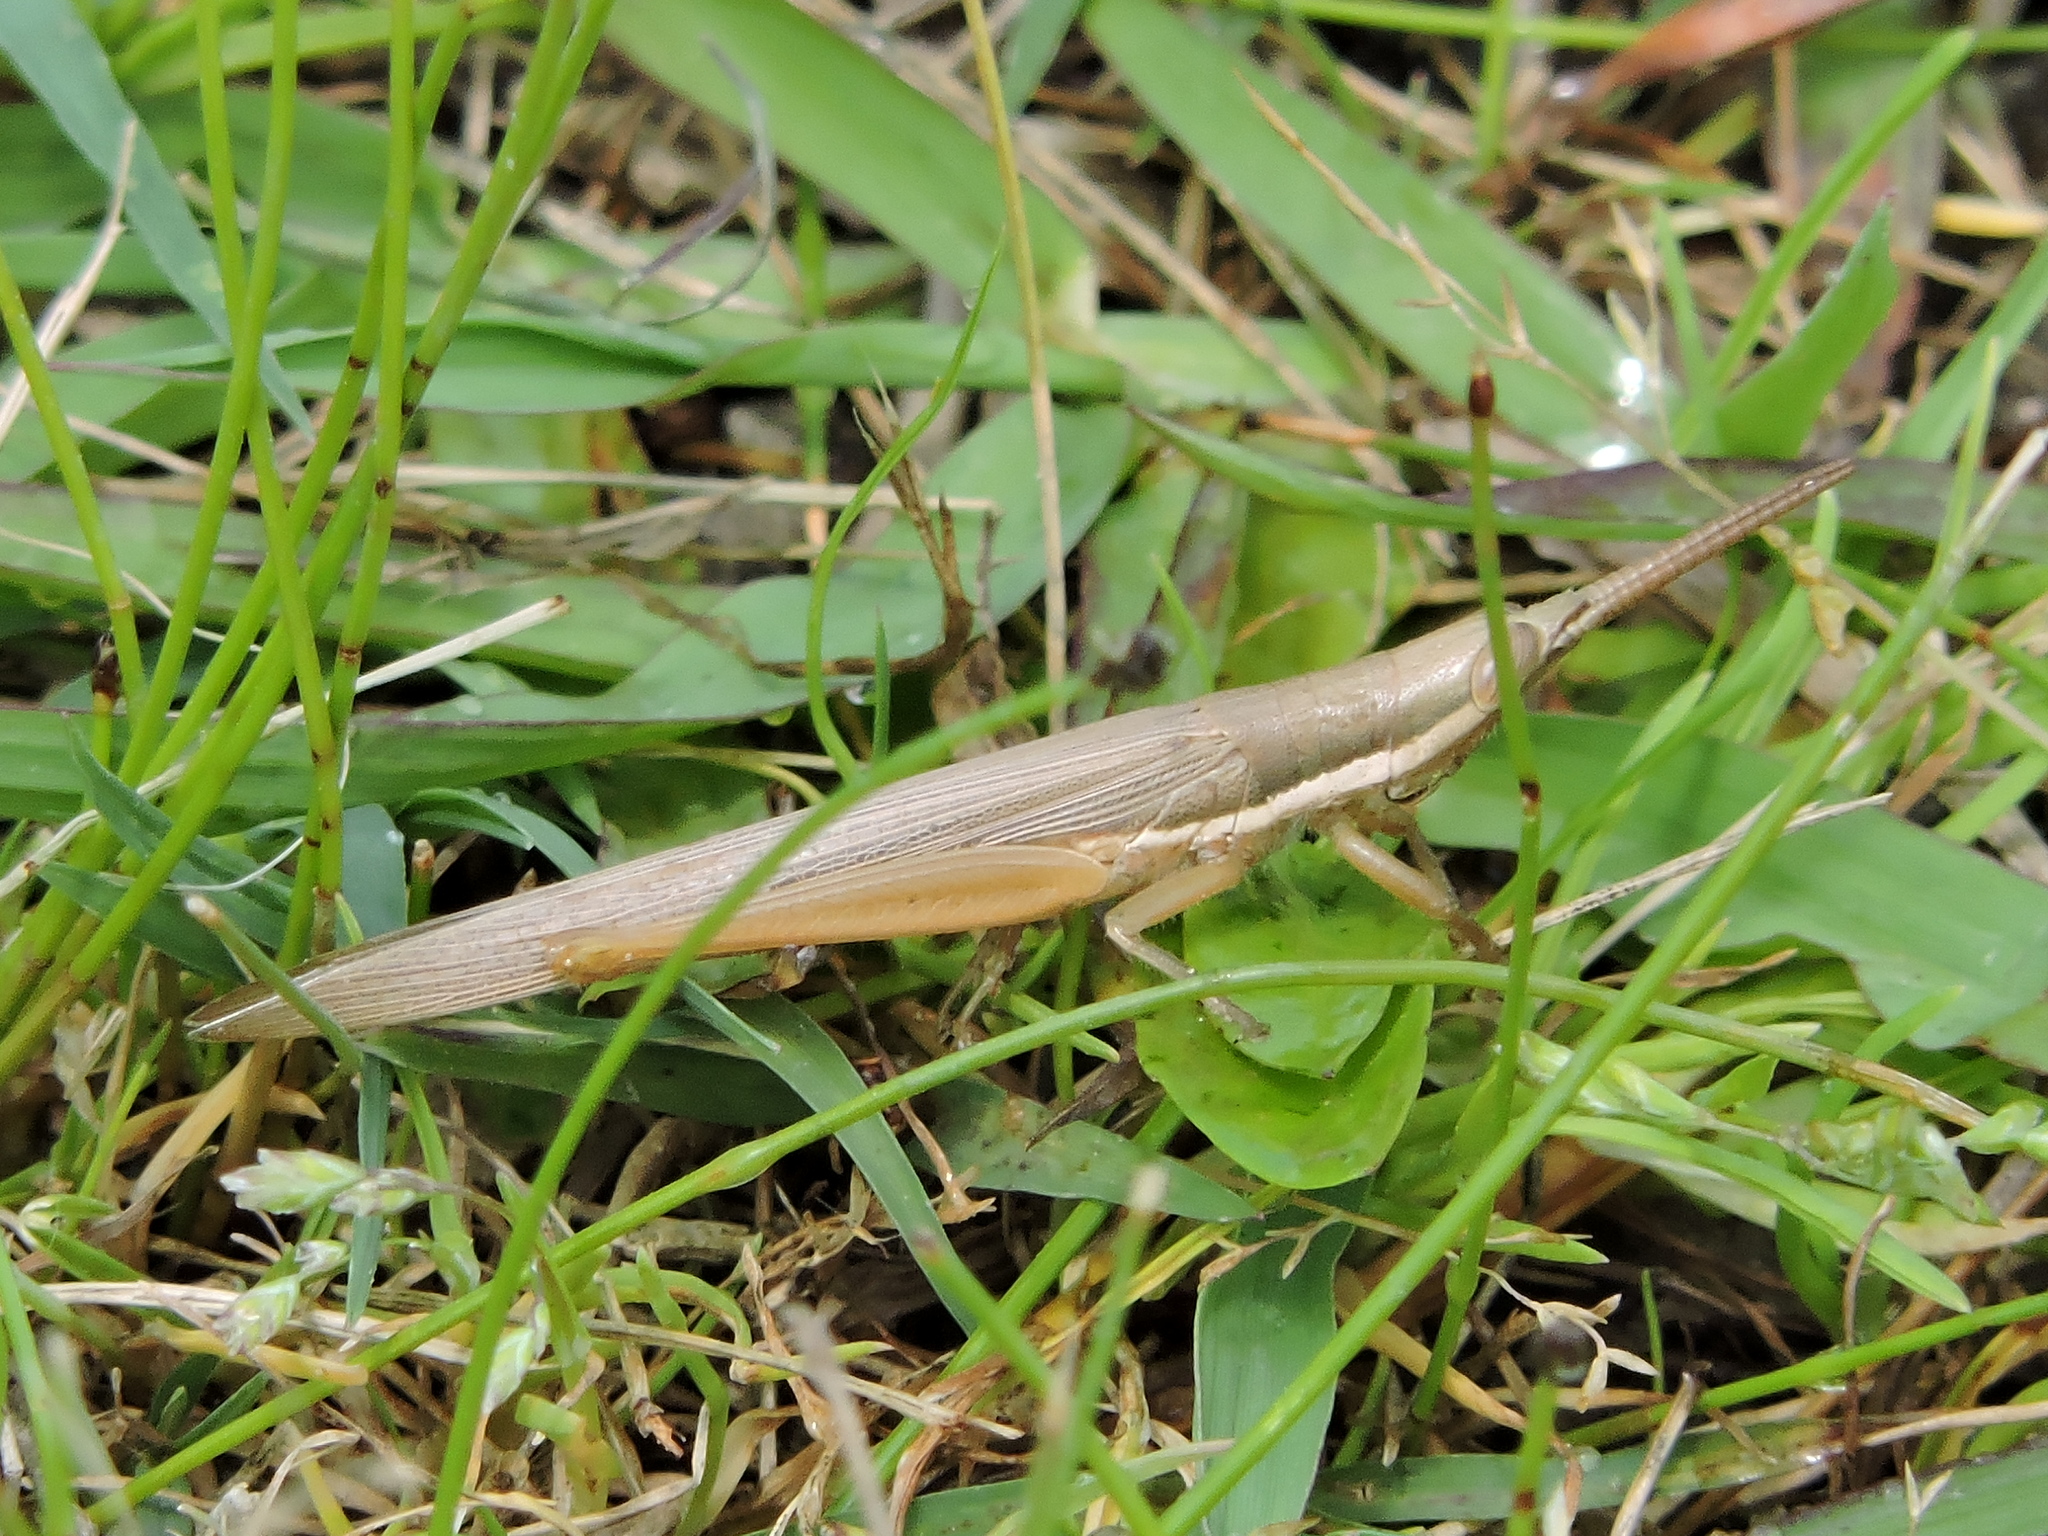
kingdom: Animalia
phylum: Arthropoda
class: Insecta
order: Orthoptera
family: Acrididae
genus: Leptysma
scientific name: Leptysma marginicollis
